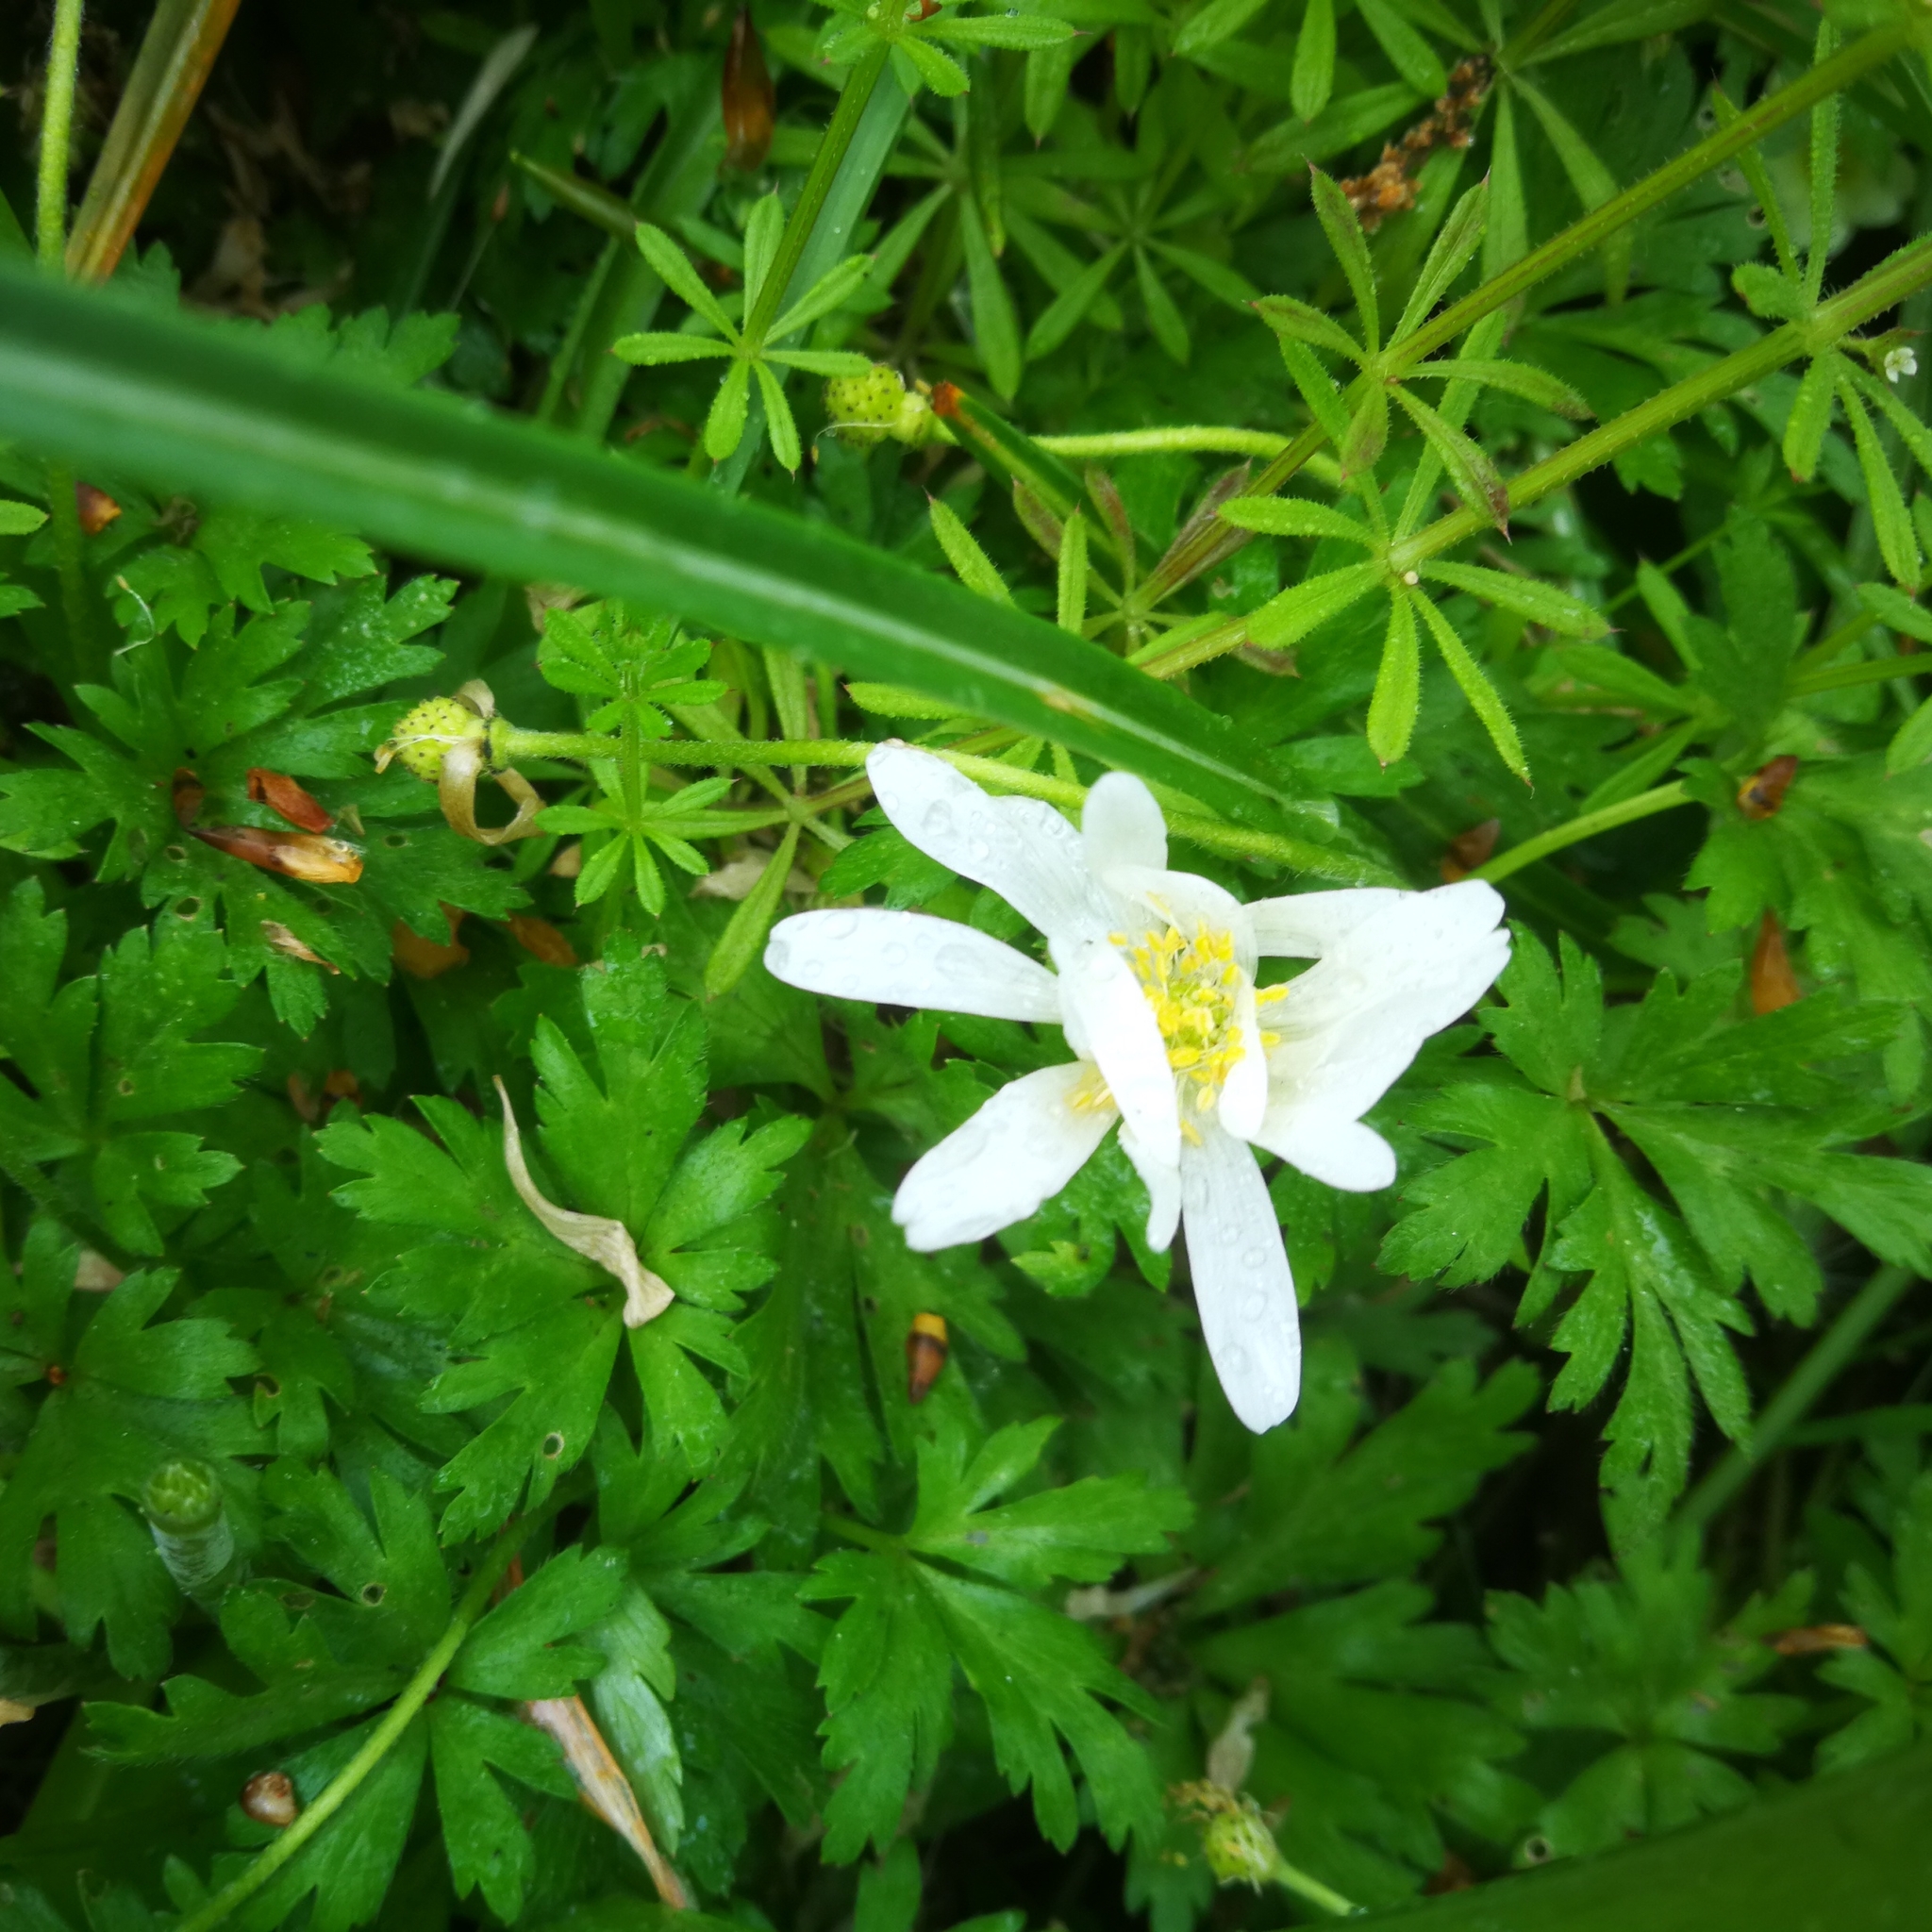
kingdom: Plantae
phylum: Tracheophyta
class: Magnoliopsida
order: Ranunculales
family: Ranunculaceae
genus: Anemone
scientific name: Anemone nemorosa
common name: Wood anemone
